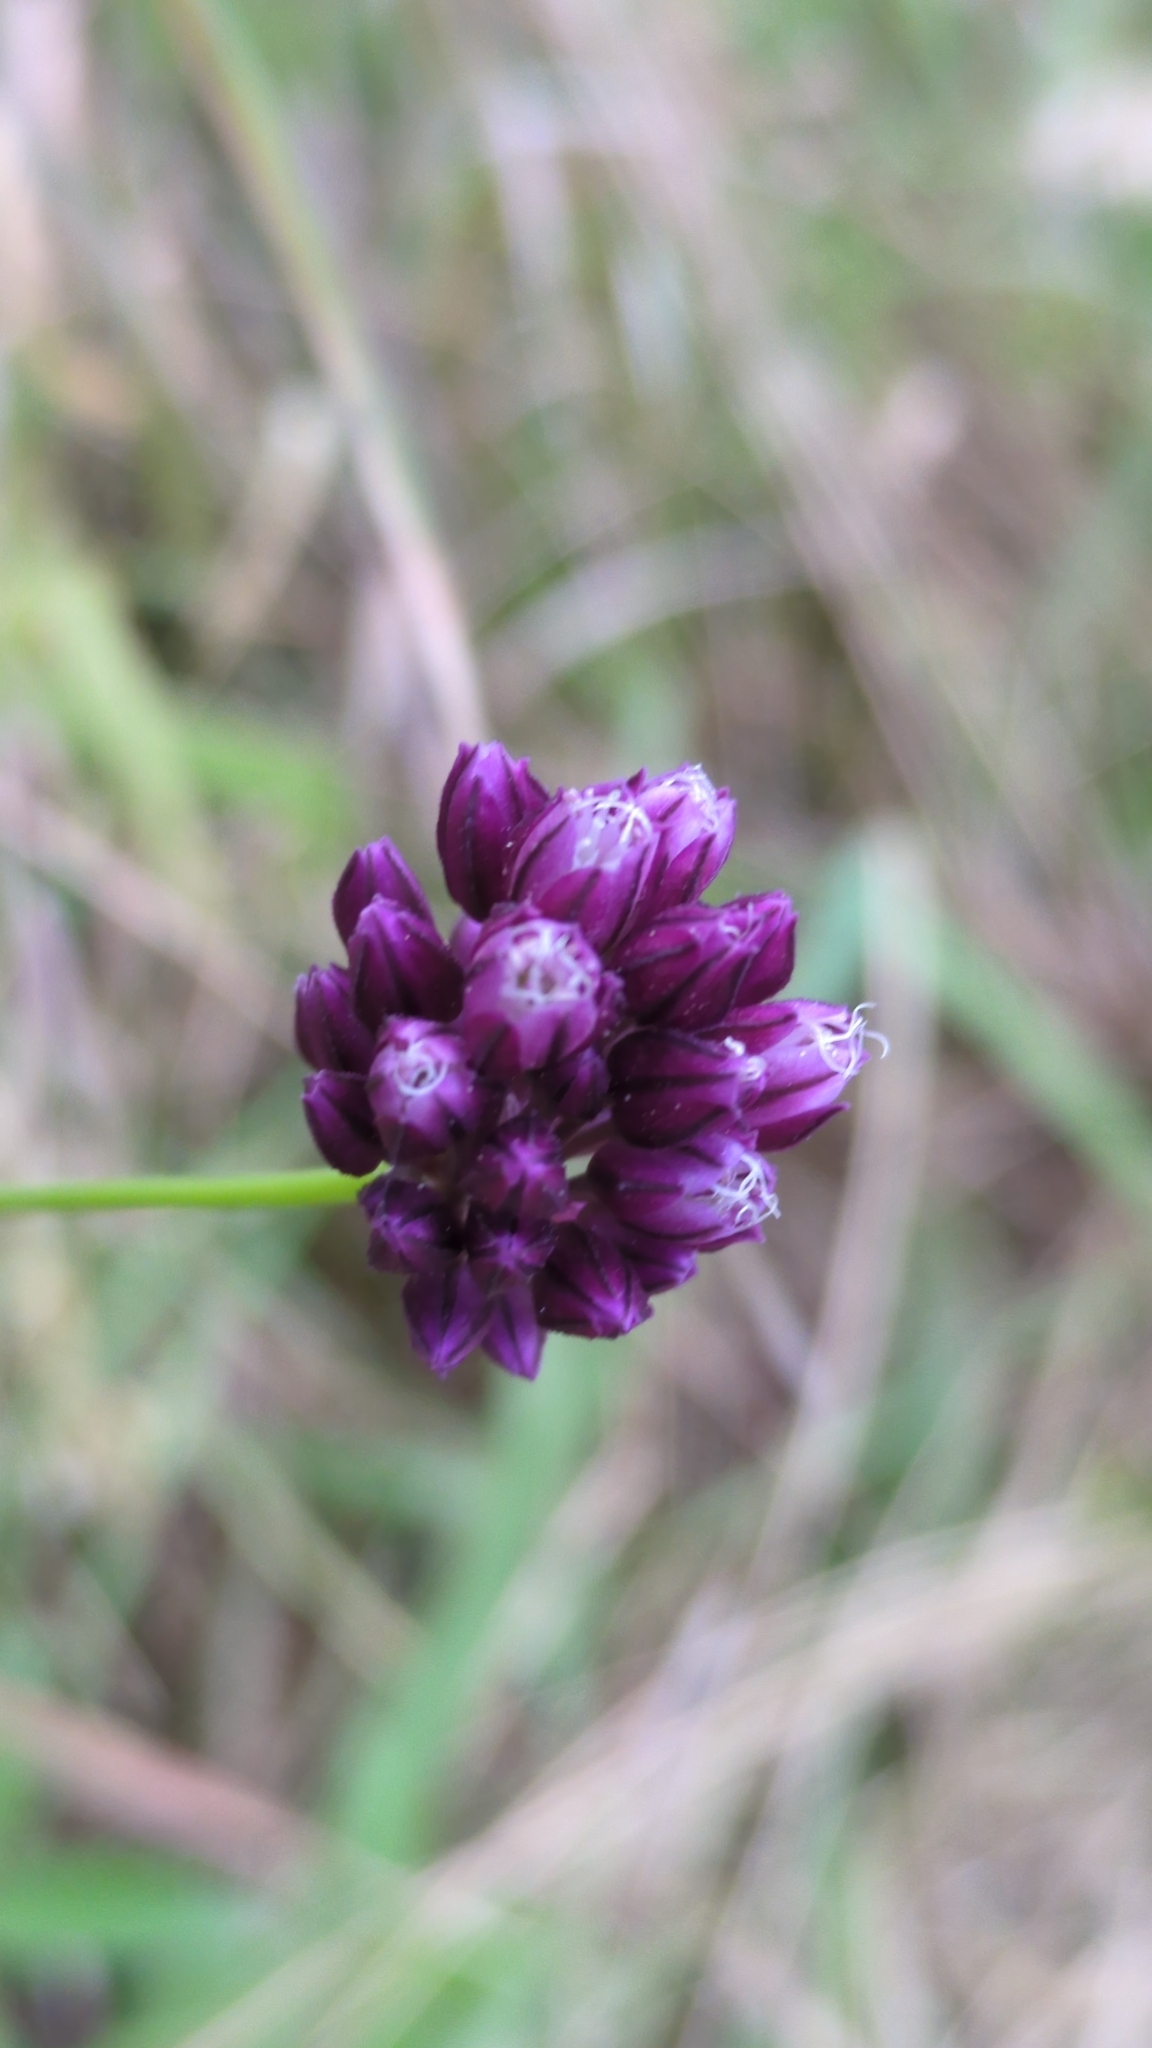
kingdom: Plantae
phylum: Tracheophyta
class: Liliopsida
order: Asparagales
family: Amaryllidaceae
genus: Allium
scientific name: Allium rotundum
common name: Sand leek
